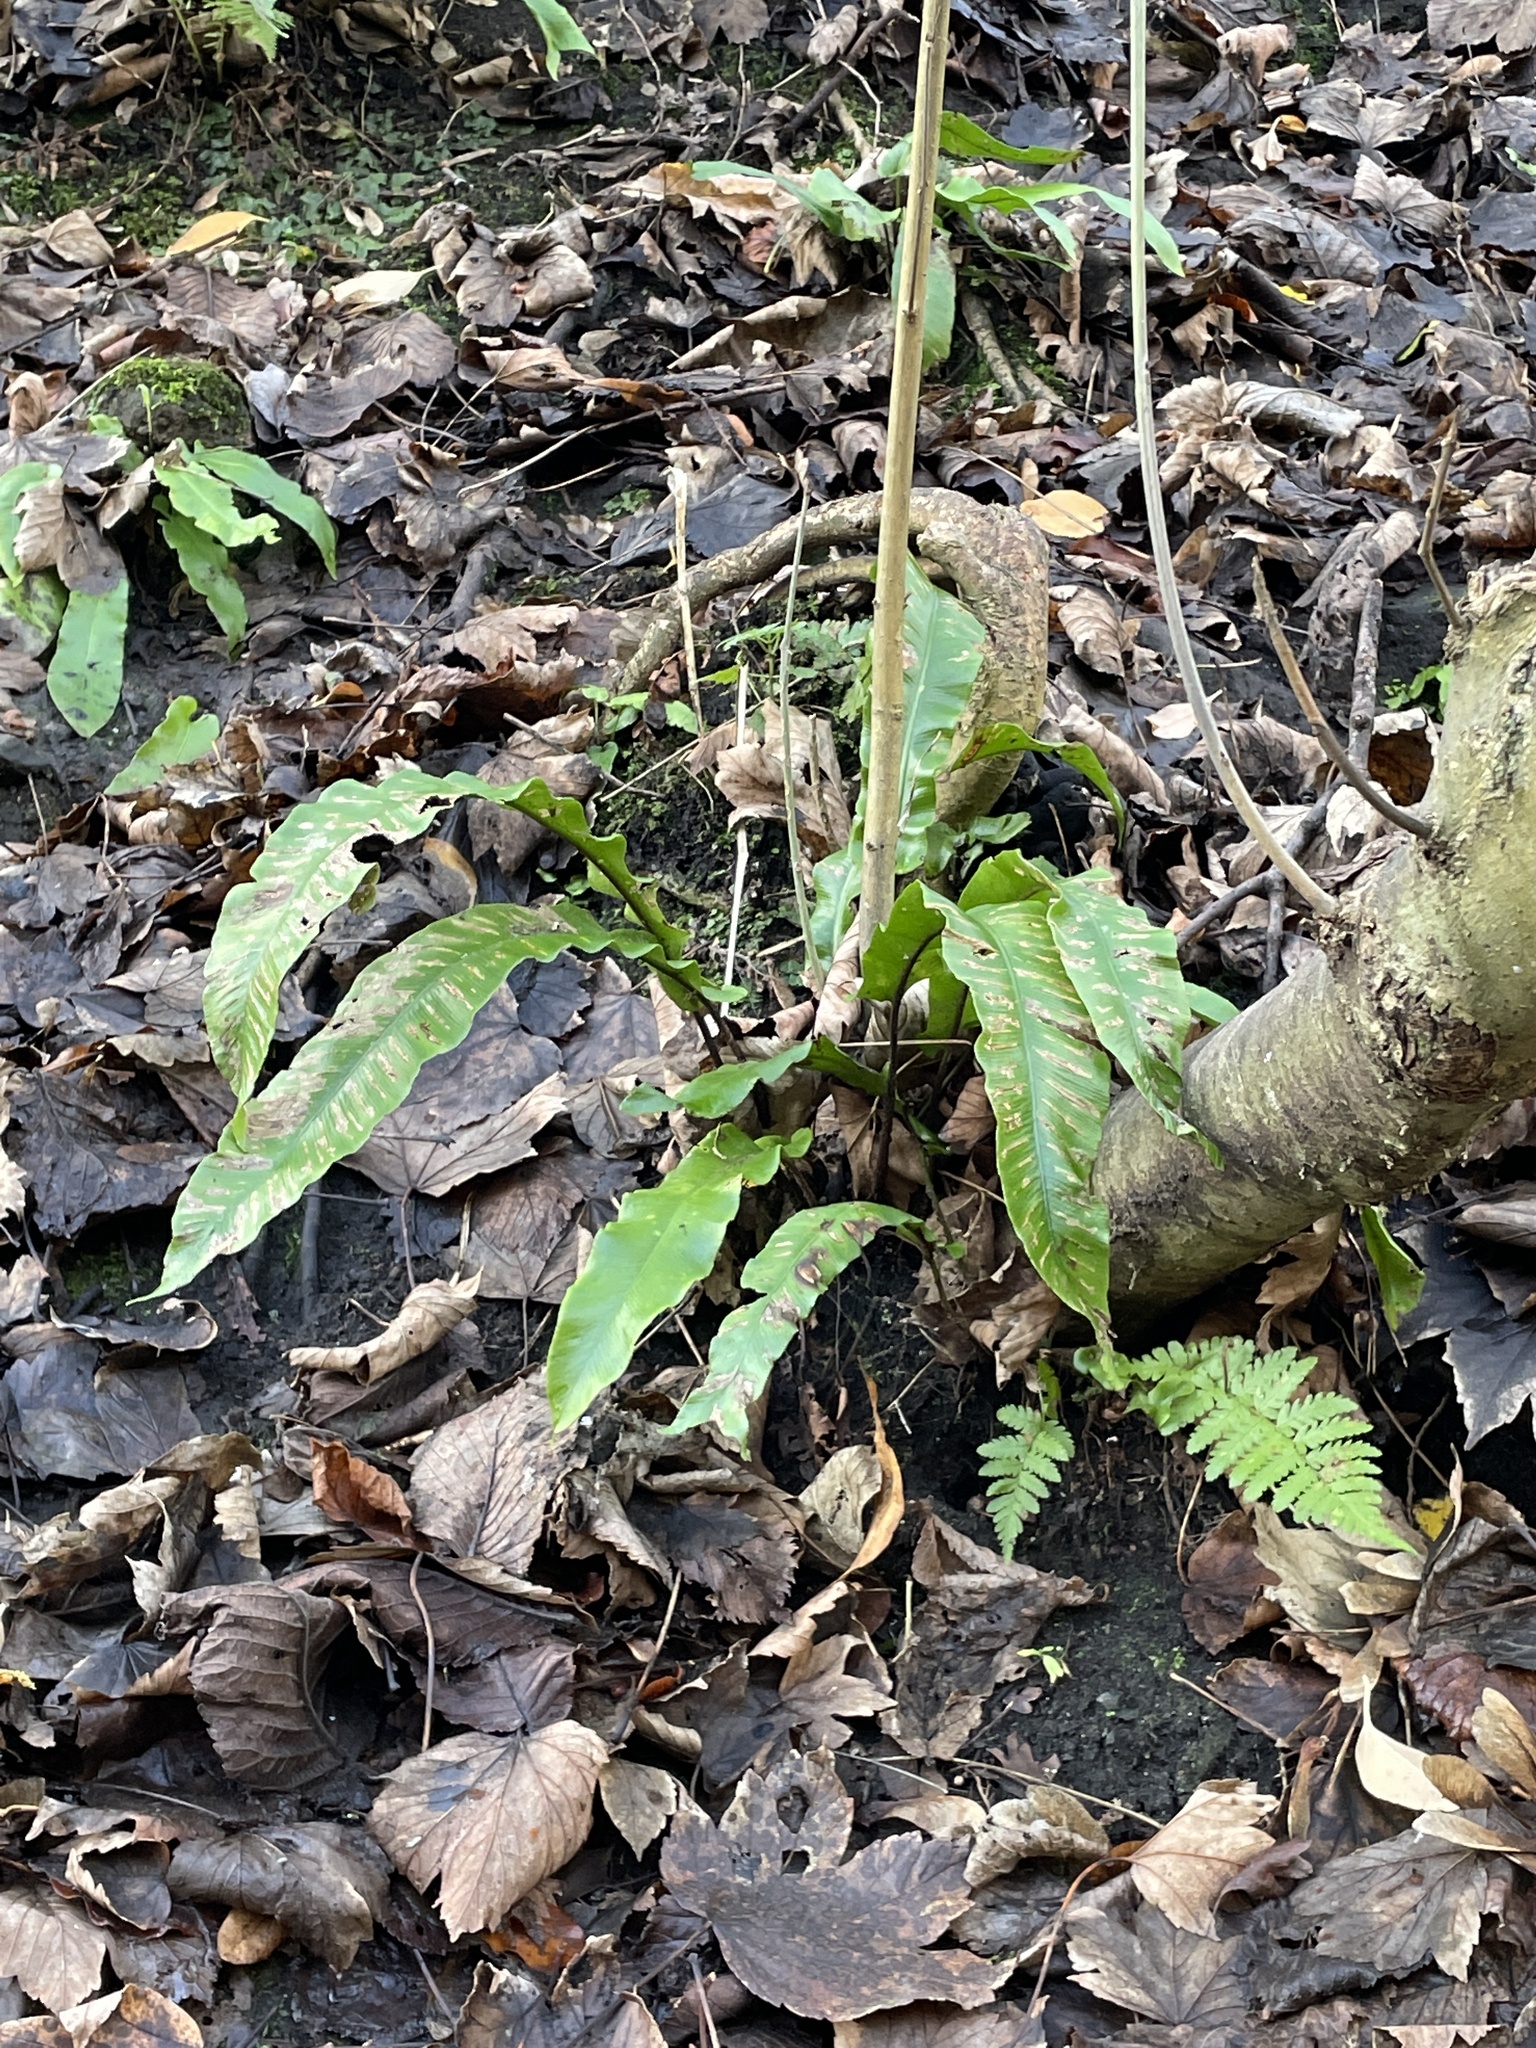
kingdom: Plantae
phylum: Tracheophyta
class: Polypodiopsida
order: Polypodiales
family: Aspleniaceae
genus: Asplenium
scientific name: Asplenium scolopendrium
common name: Hart's-tongue fern
